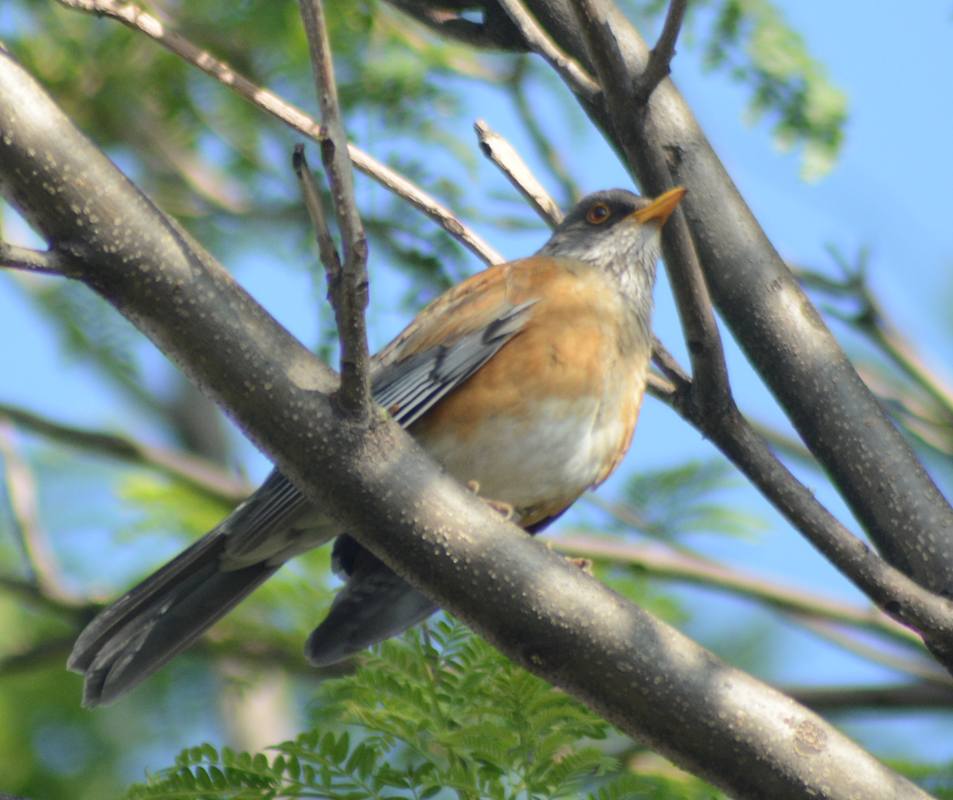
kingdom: Animalia
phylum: Chordata
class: Aves
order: Passeriformes
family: Turdidae
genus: Turdus
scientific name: Turdus rufopalliatus
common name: Rufous-backed robin
